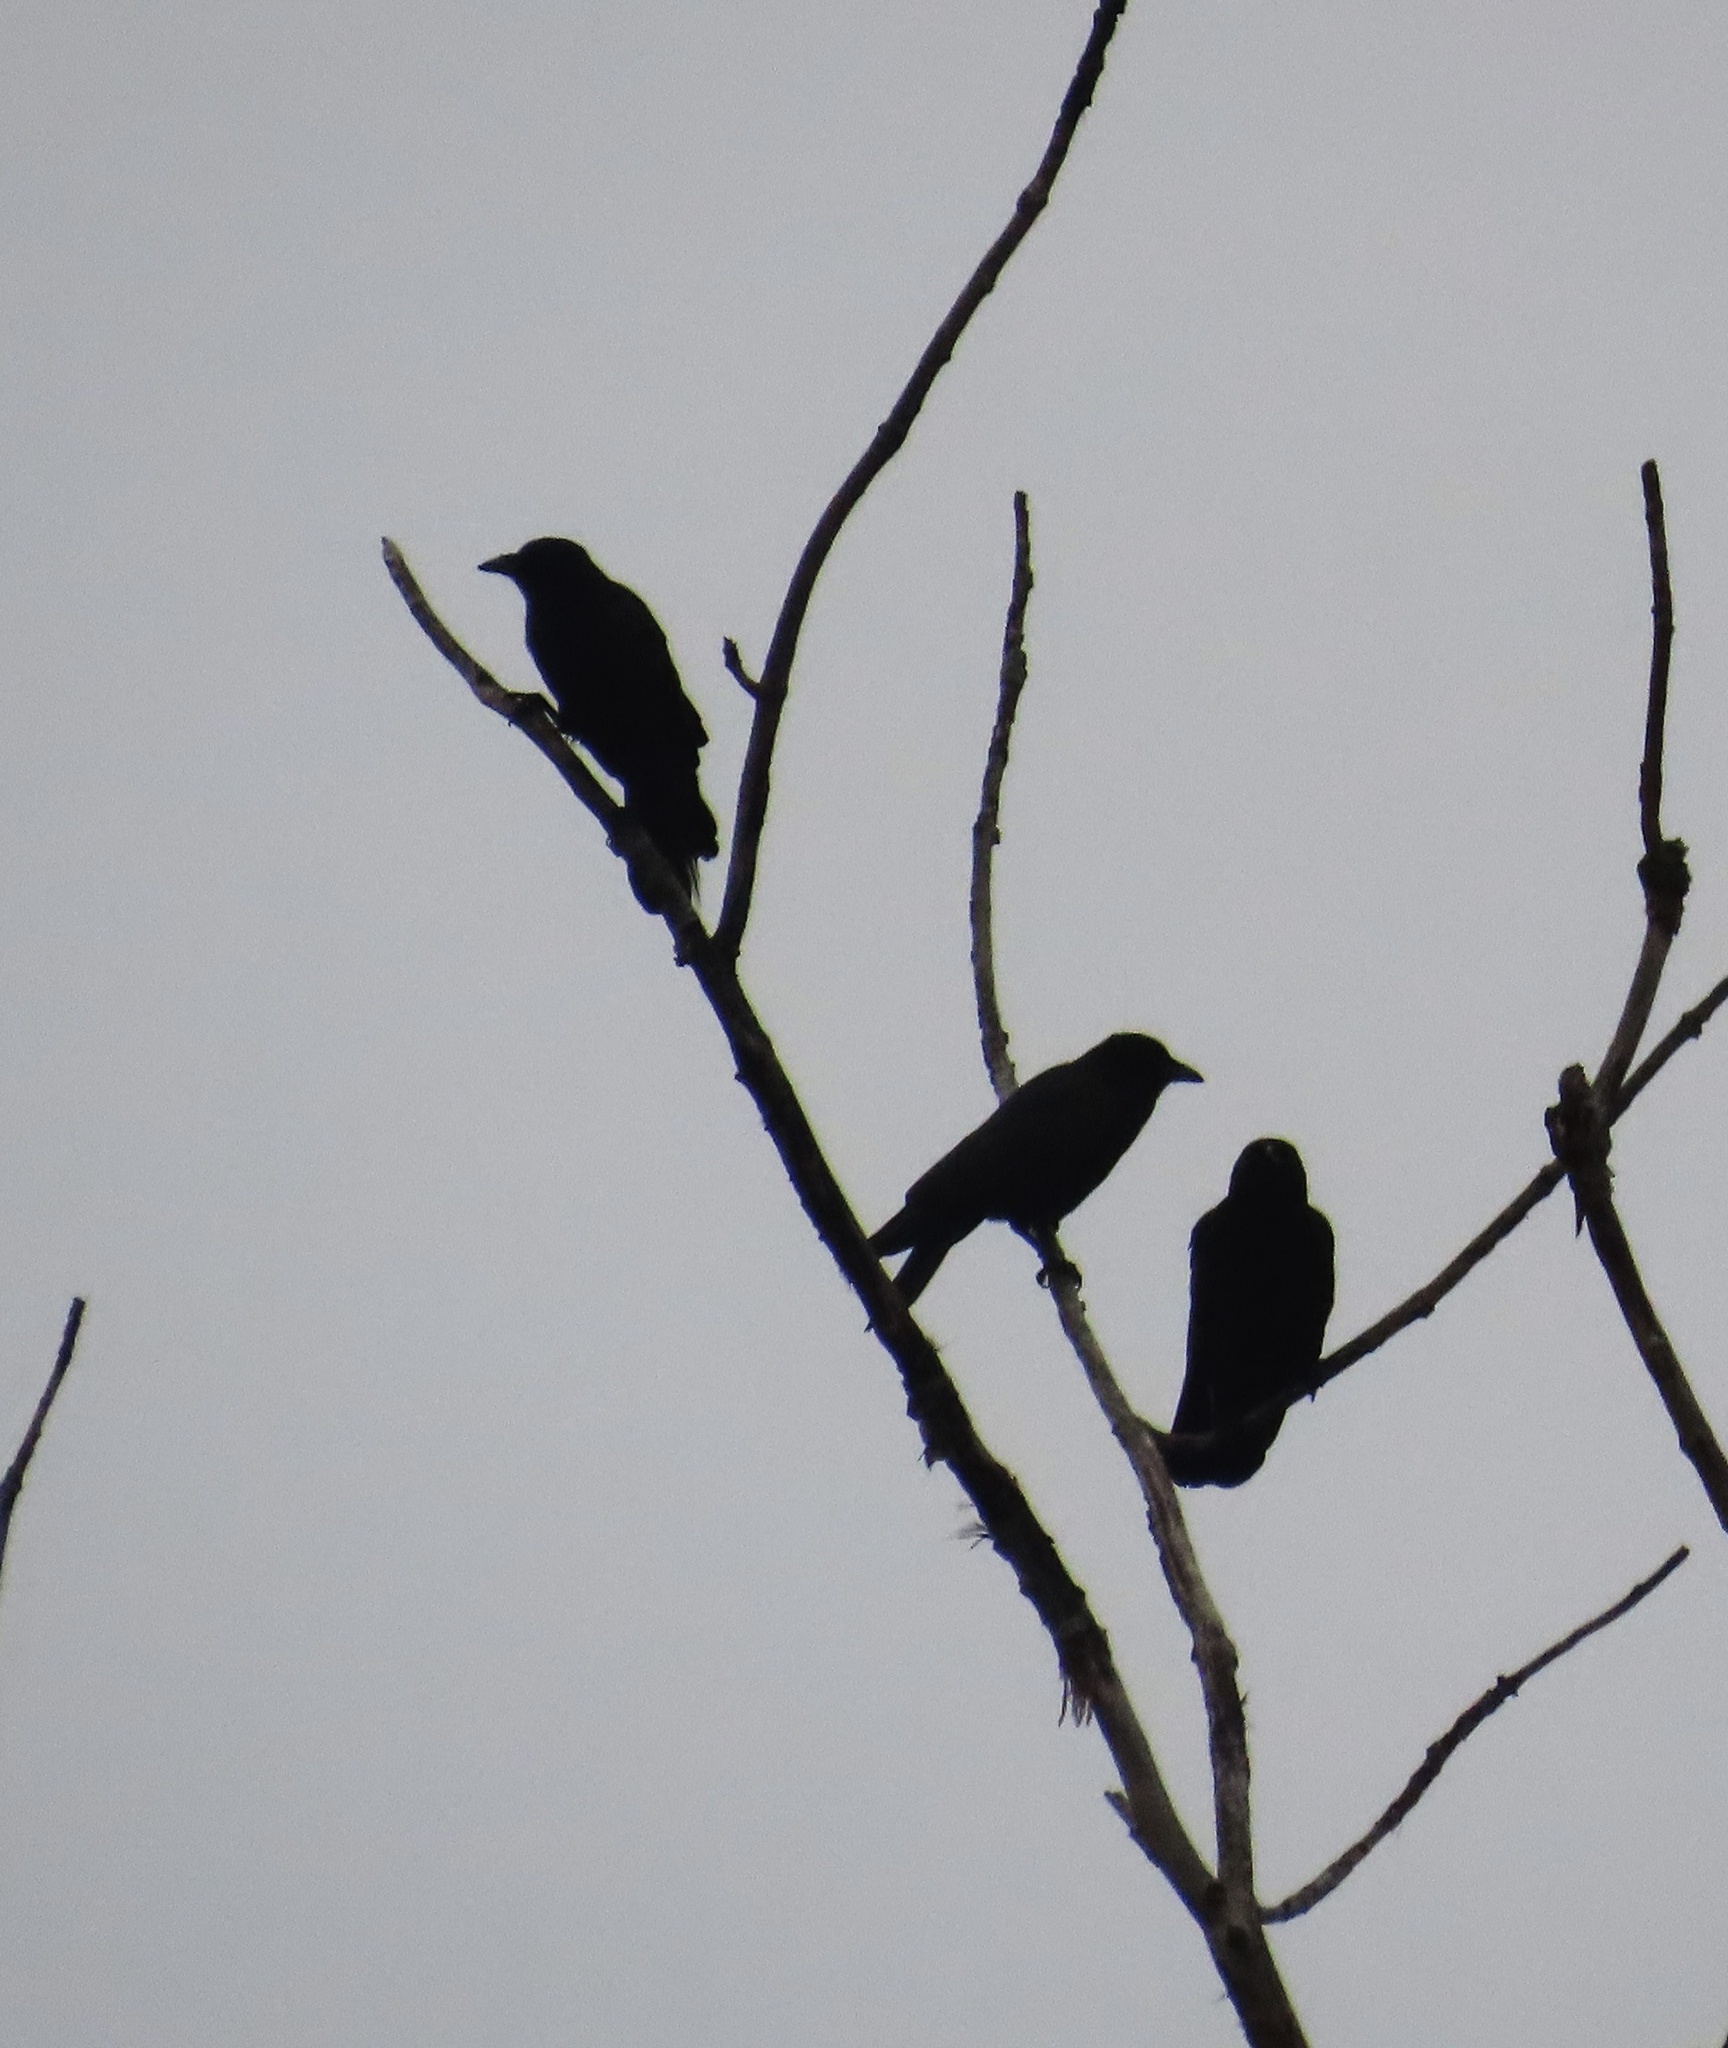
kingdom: Animalia
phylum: Chordata
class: Aves
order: Passeriformes
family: Corvidae
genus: Corvus
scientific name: Corvus brachyrhynchos
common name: American crow
